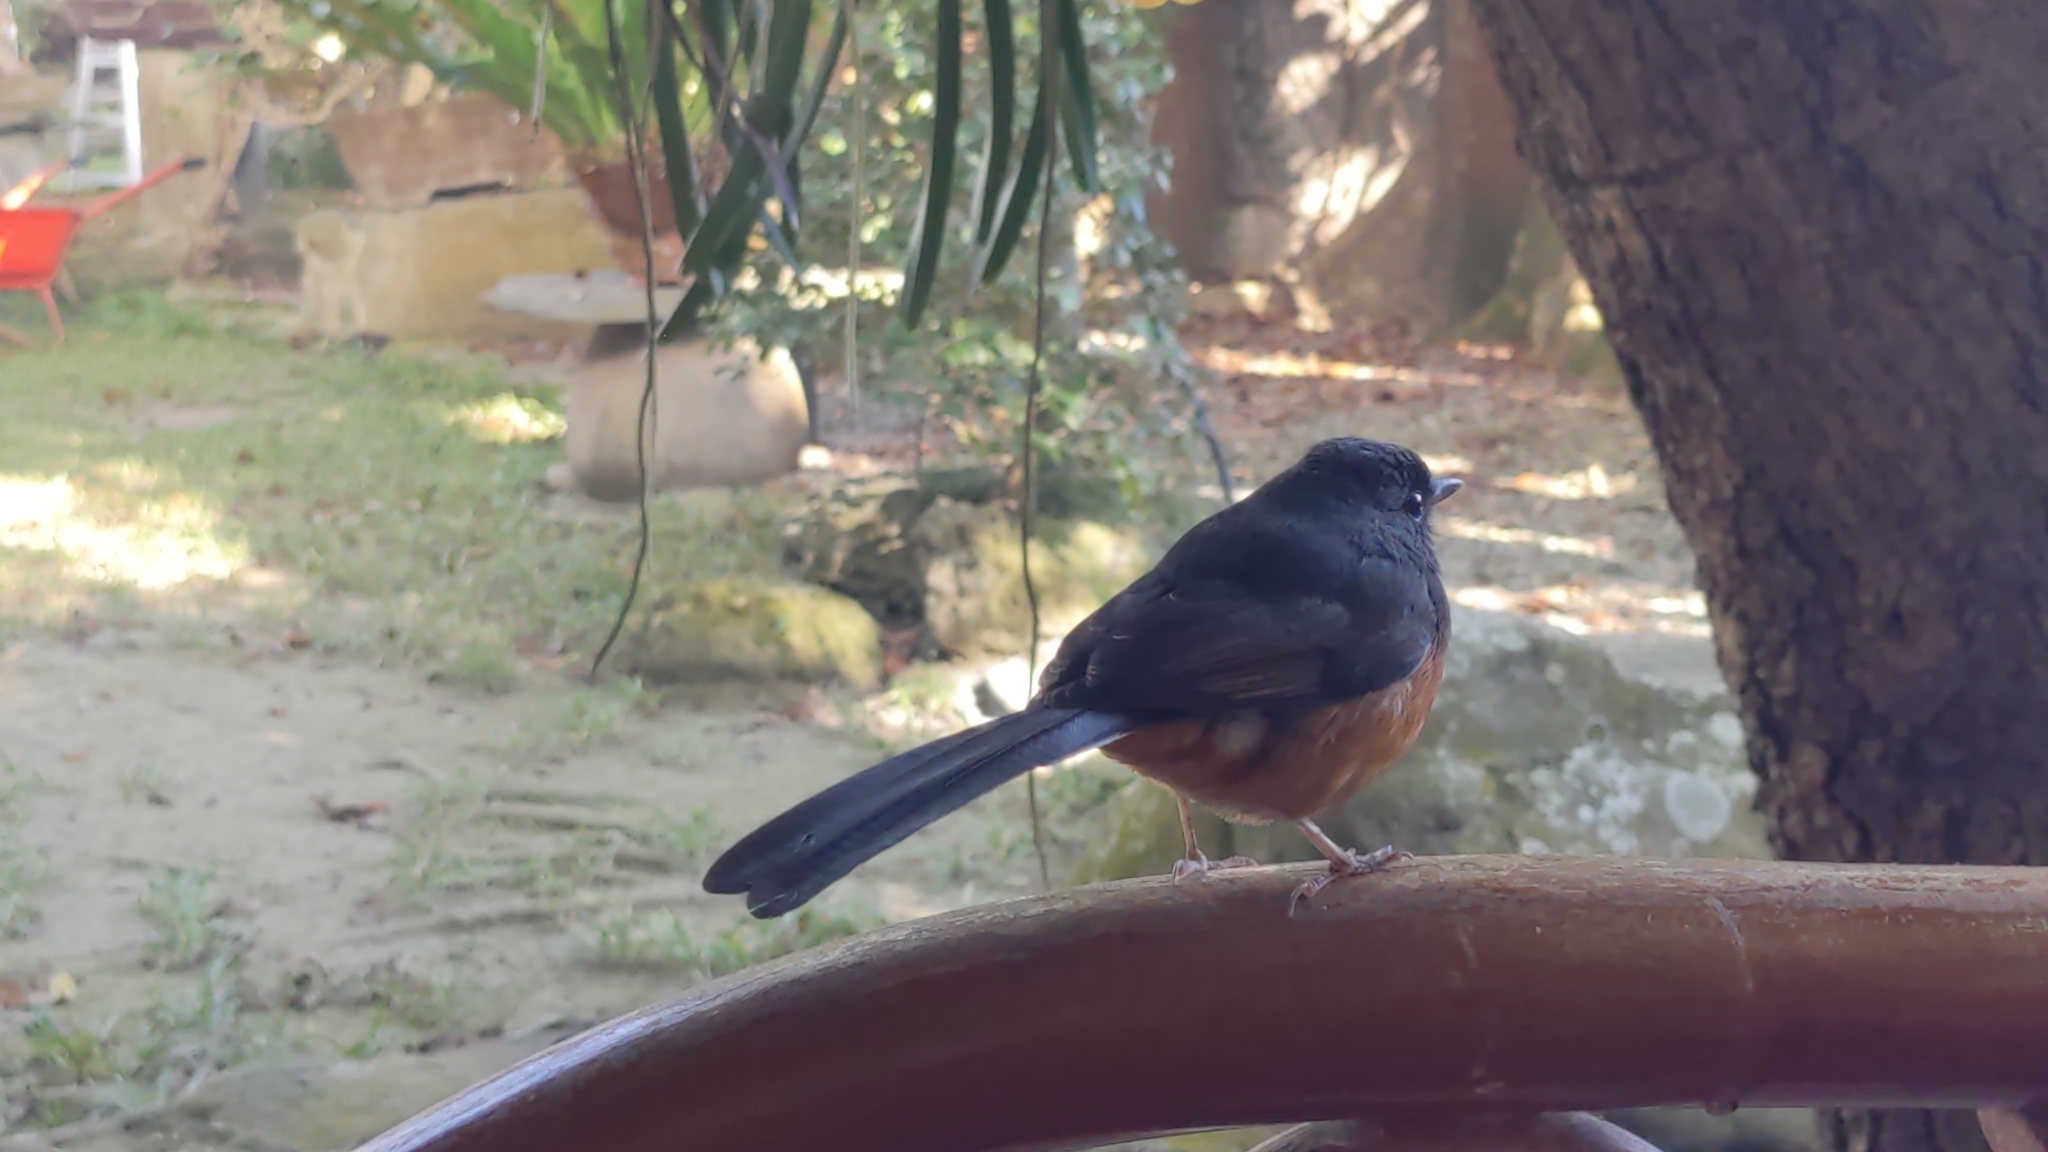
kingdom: Animalia
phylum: Chordata
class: Aves
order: Passeriformes
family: Muscicapidae
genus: Copsychus
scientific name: Copsychus malabaricus
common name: White-rumped shama
